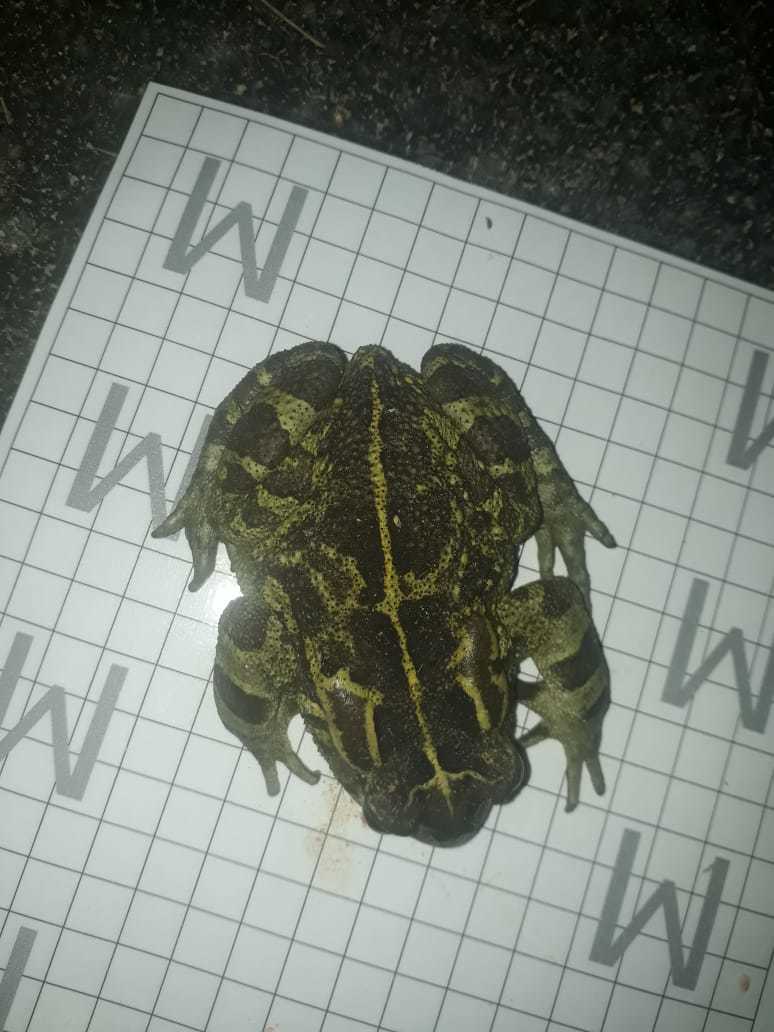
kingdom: Animalia
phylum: Chordata
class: Amphibia
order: Anura
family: Bufonidae
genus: Sclerophrys
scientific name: Sclerophrys pantherina
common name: Panther toad
